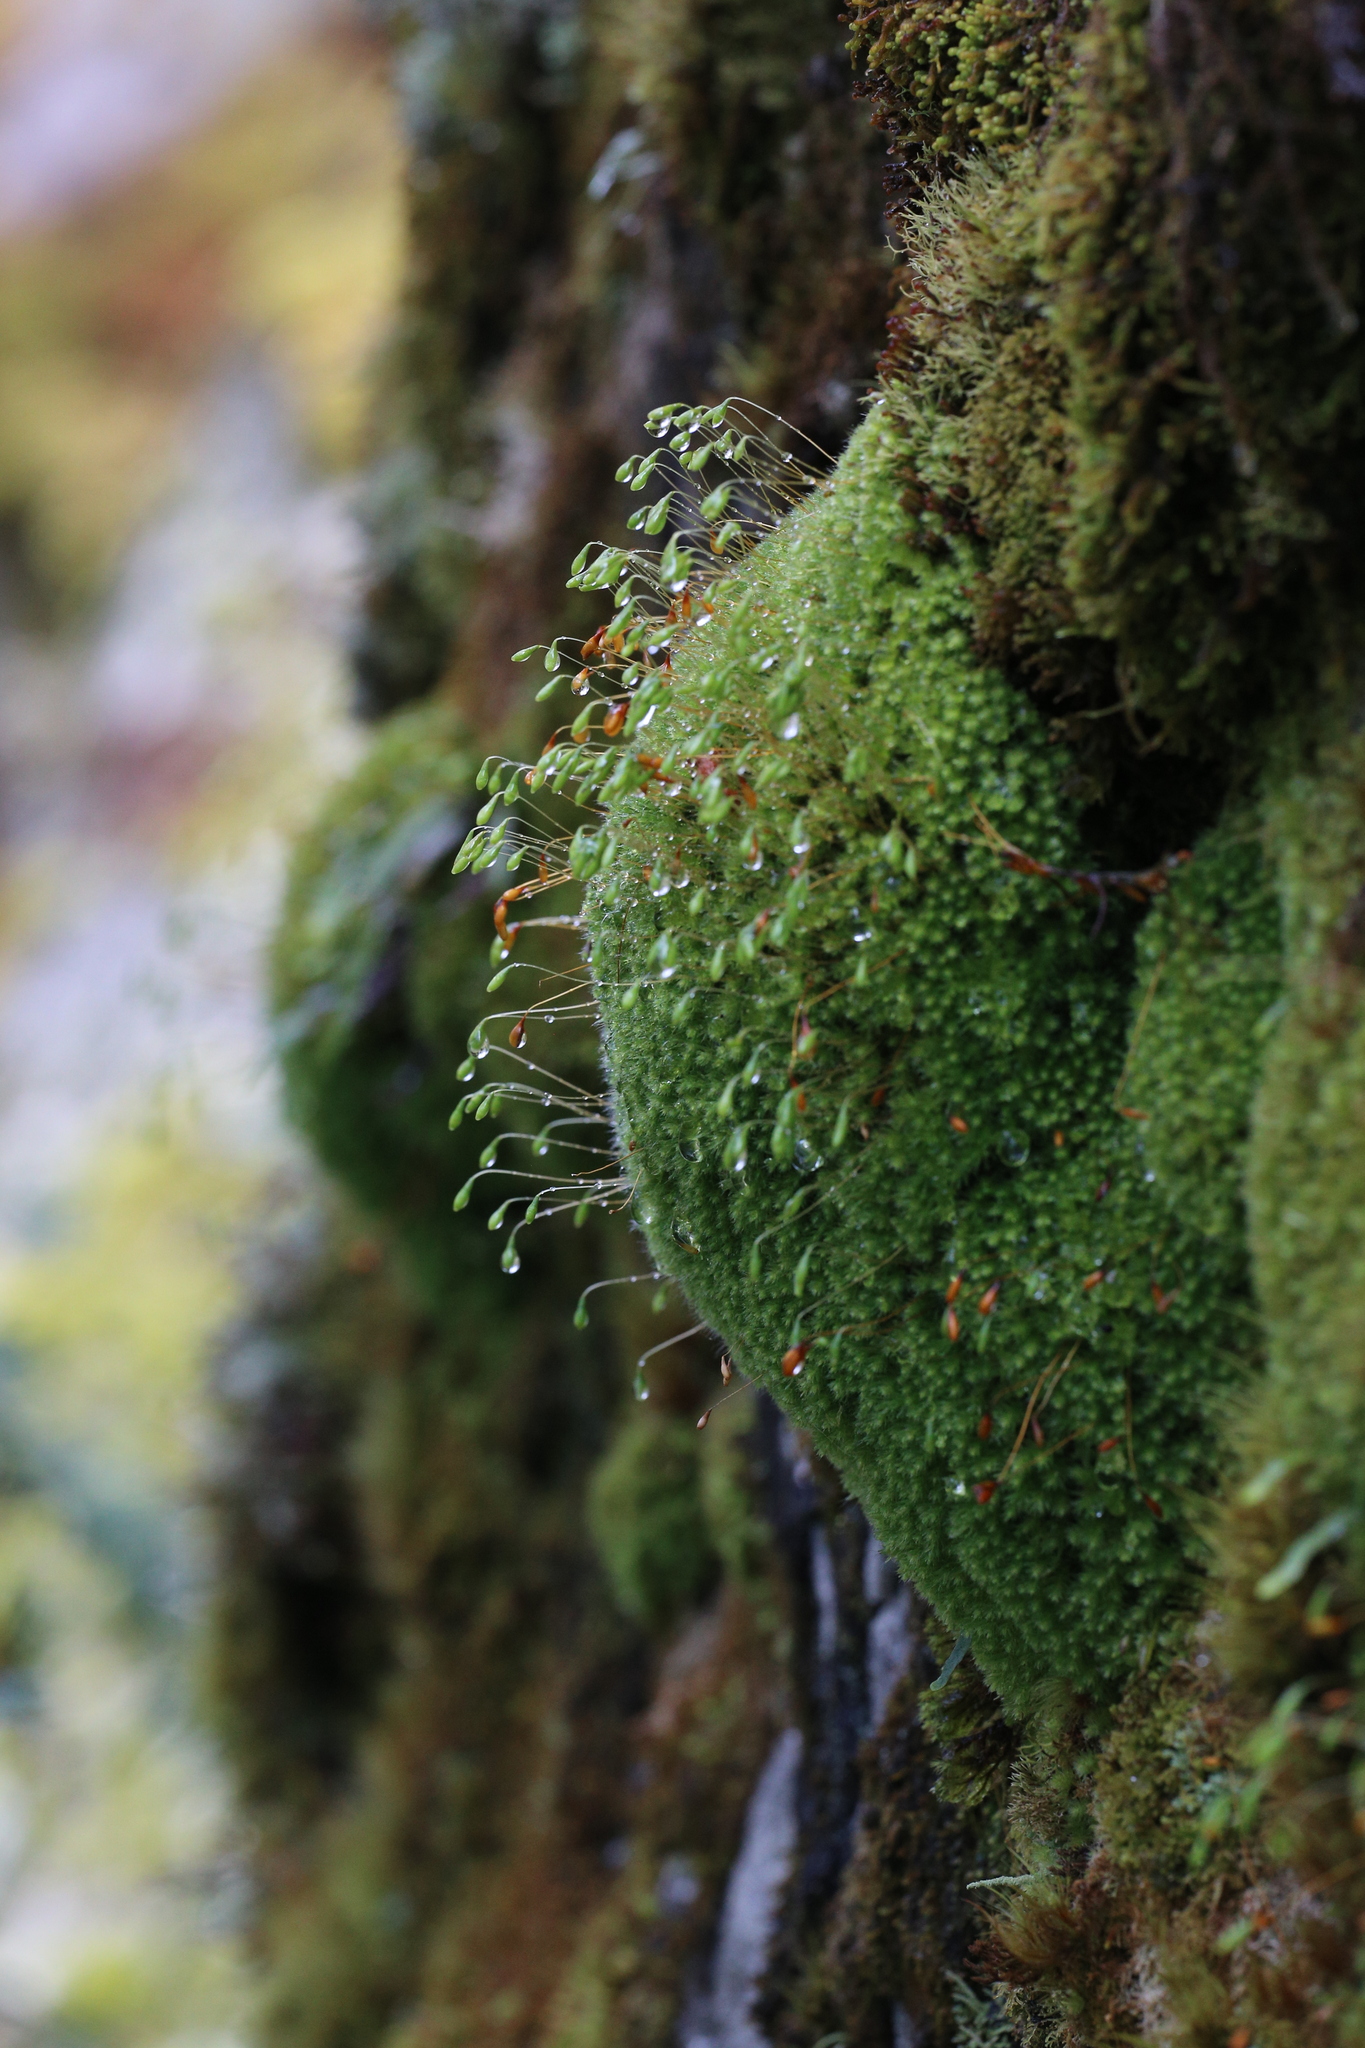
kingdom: Plantae
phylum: Bryophyta
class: Bryopsida
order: Bryales
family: Leptostomataceae
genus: Leptostomum
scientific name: Leptostomum inclinans
